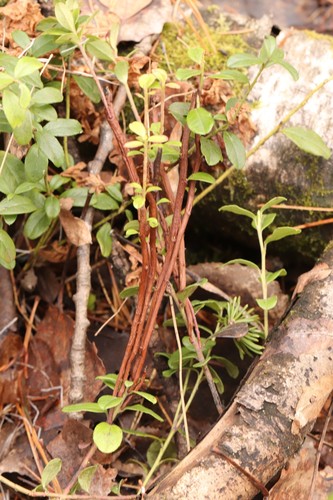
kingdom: Fungi
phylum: Basidiomycota
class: Pucciniomycetes
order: Pucciniales
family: Pucciniastraceae
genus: Calyptospora
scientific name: Calyptospora columnaris
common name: Huckleberry broom rust fungus
